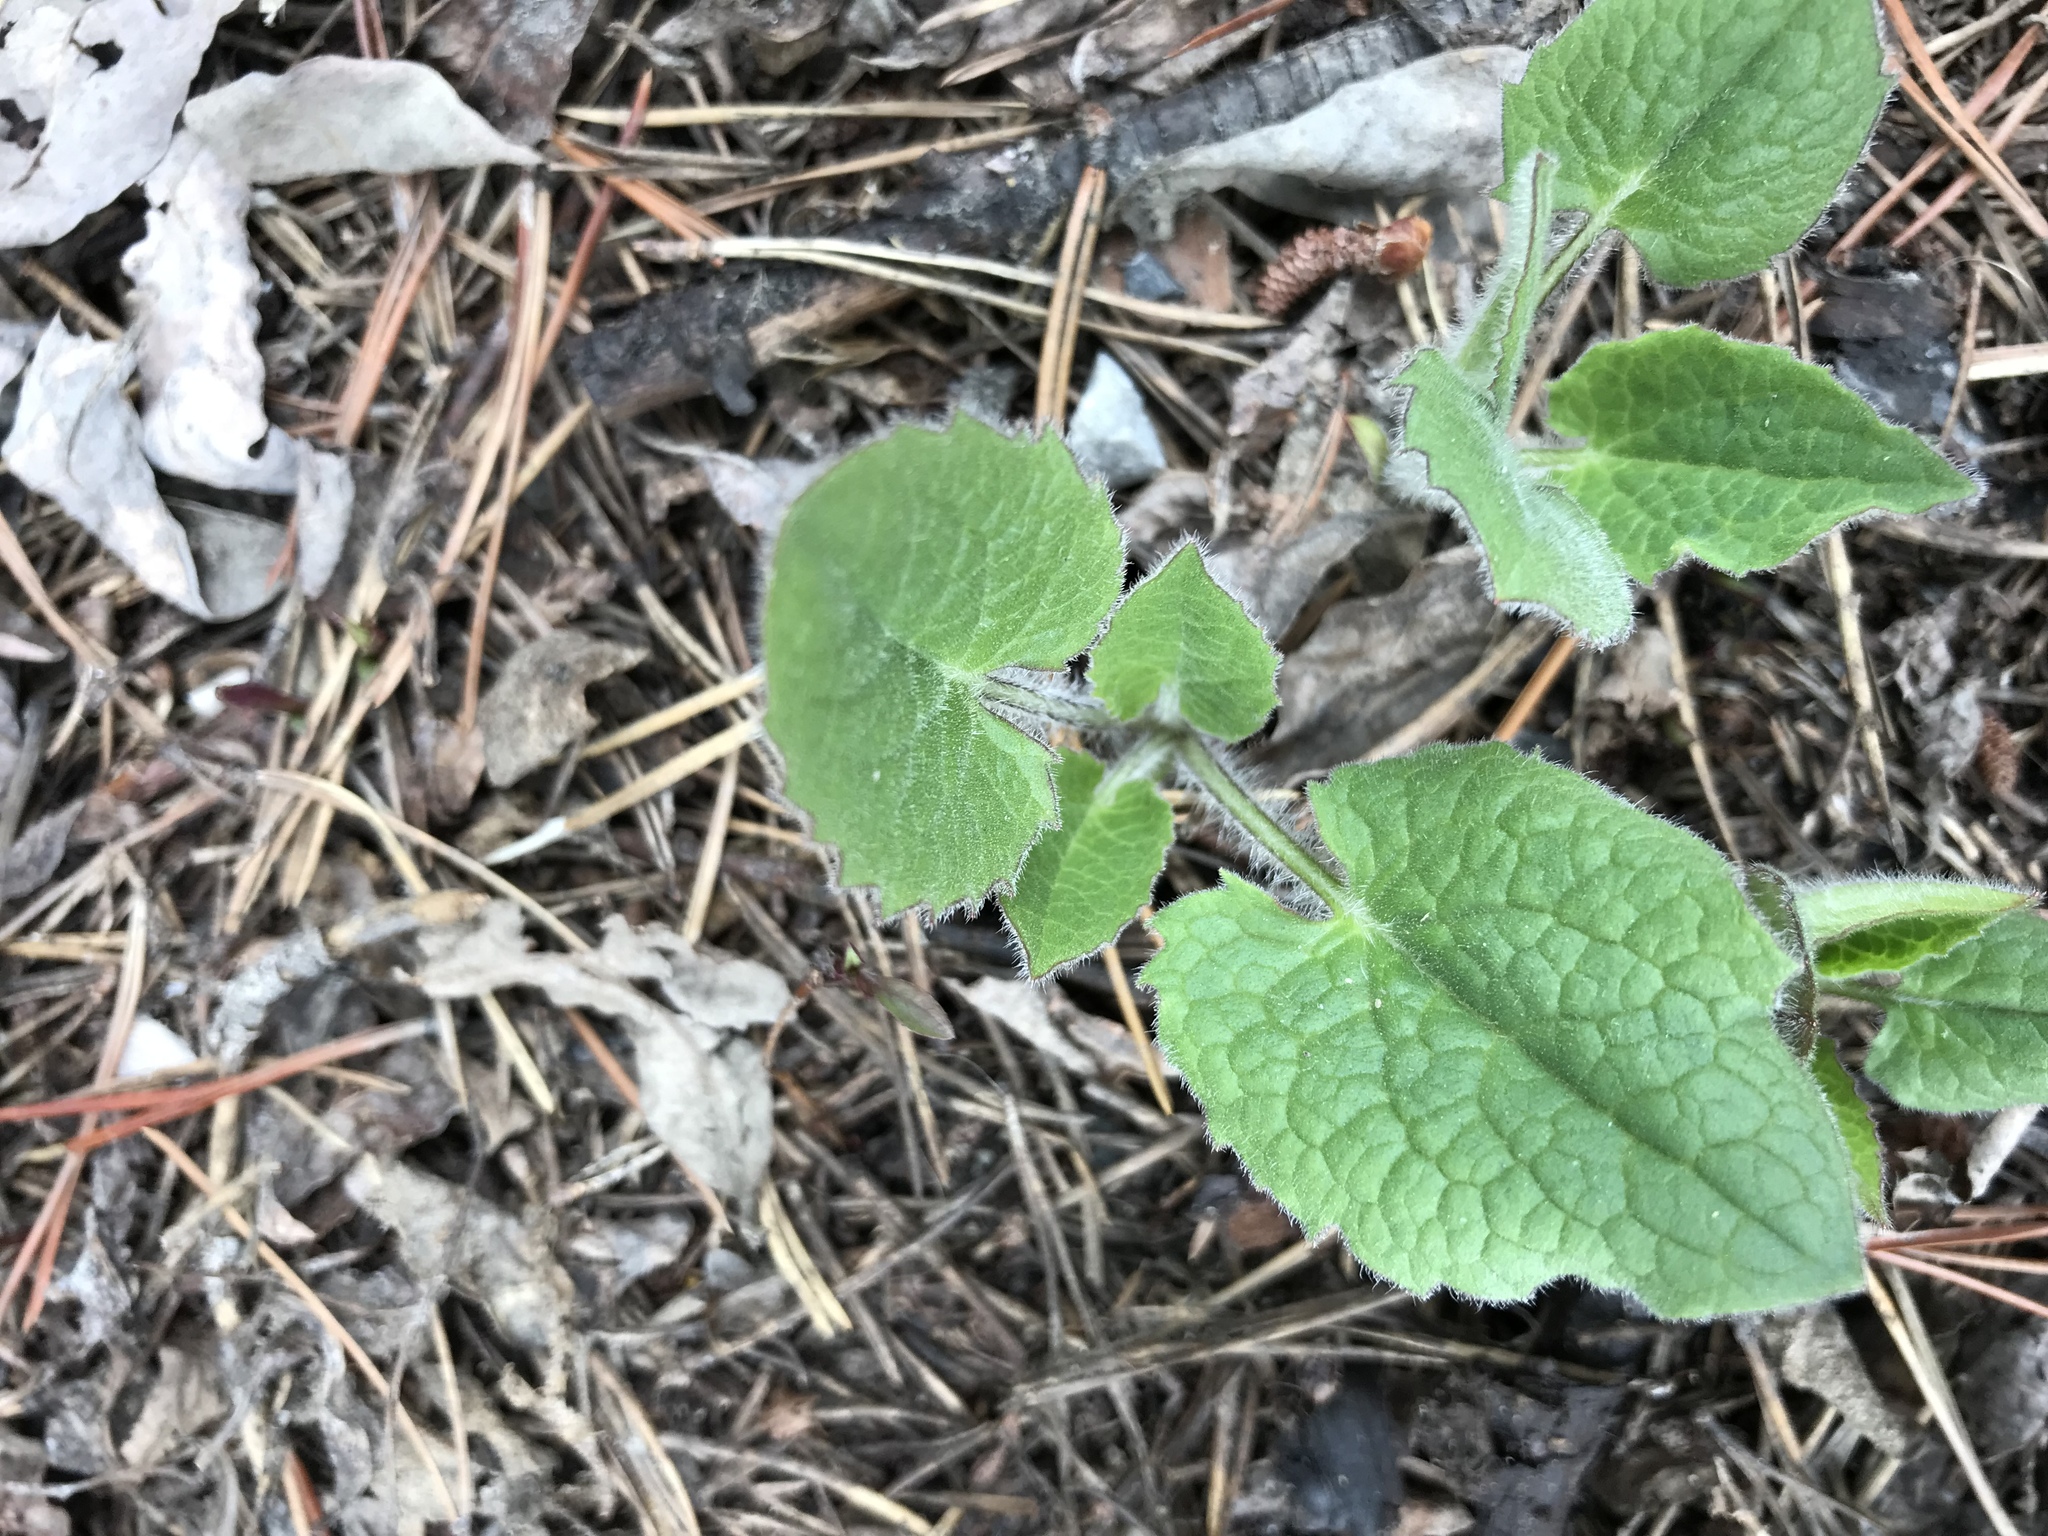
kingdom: Plantae
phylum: Tracheophyta
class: Magnoliopsida
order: Asterales
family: Asteraceae
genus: Arnica
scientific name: Arnica cordifolia
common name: Heart-leaf arnica
